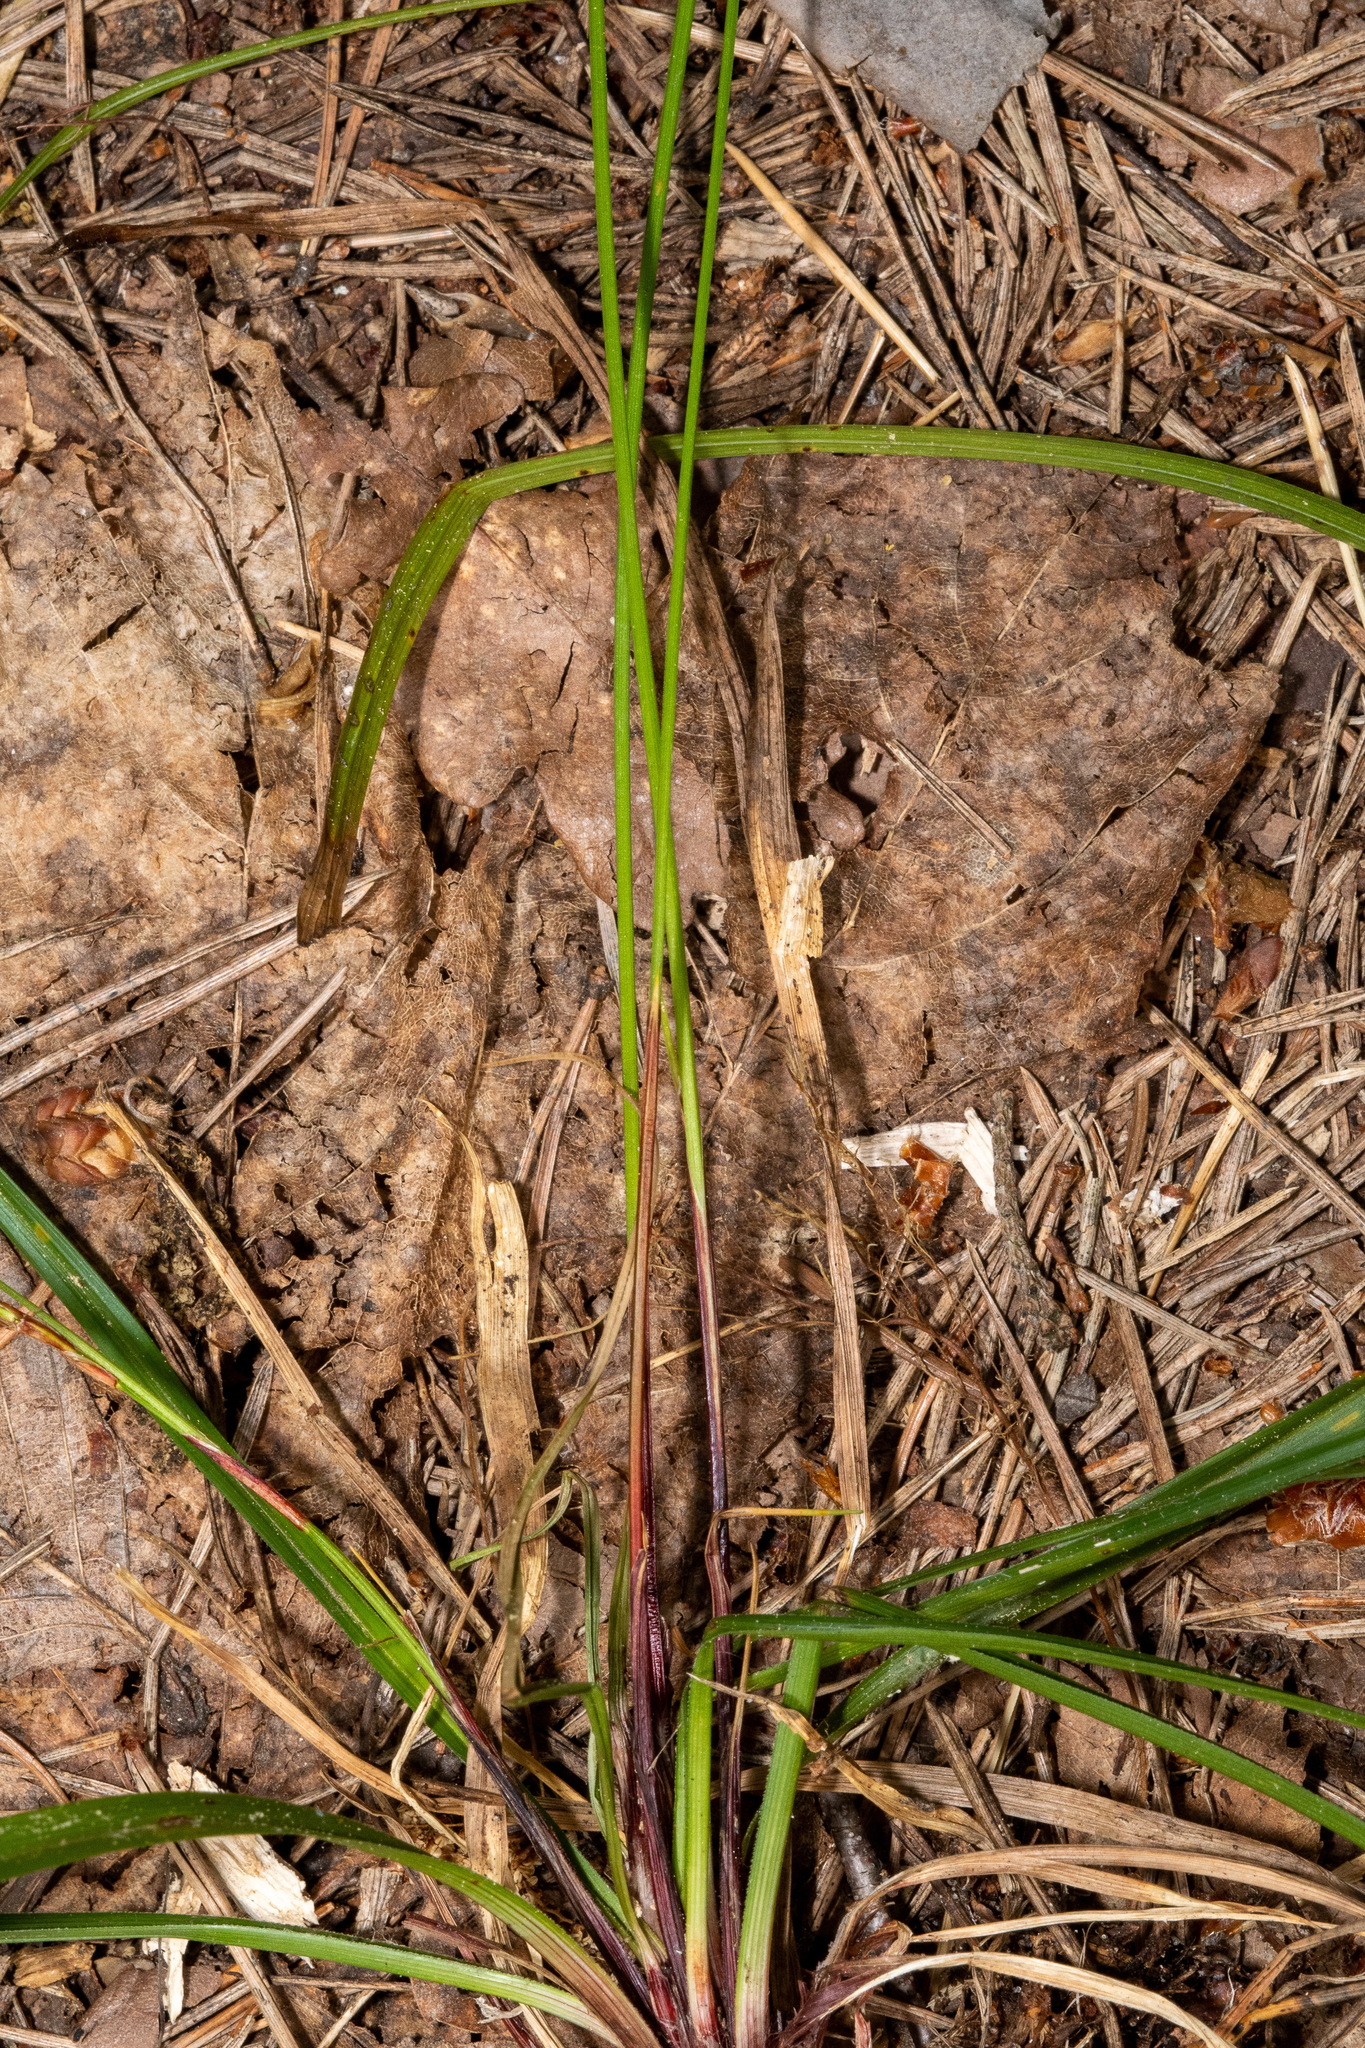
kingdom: Plantae
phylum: Tracheophyta
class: Liliopsida
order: Poales
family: Cyperaceae
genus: Carex
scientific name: Carex digitata
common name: Fingered sedge
